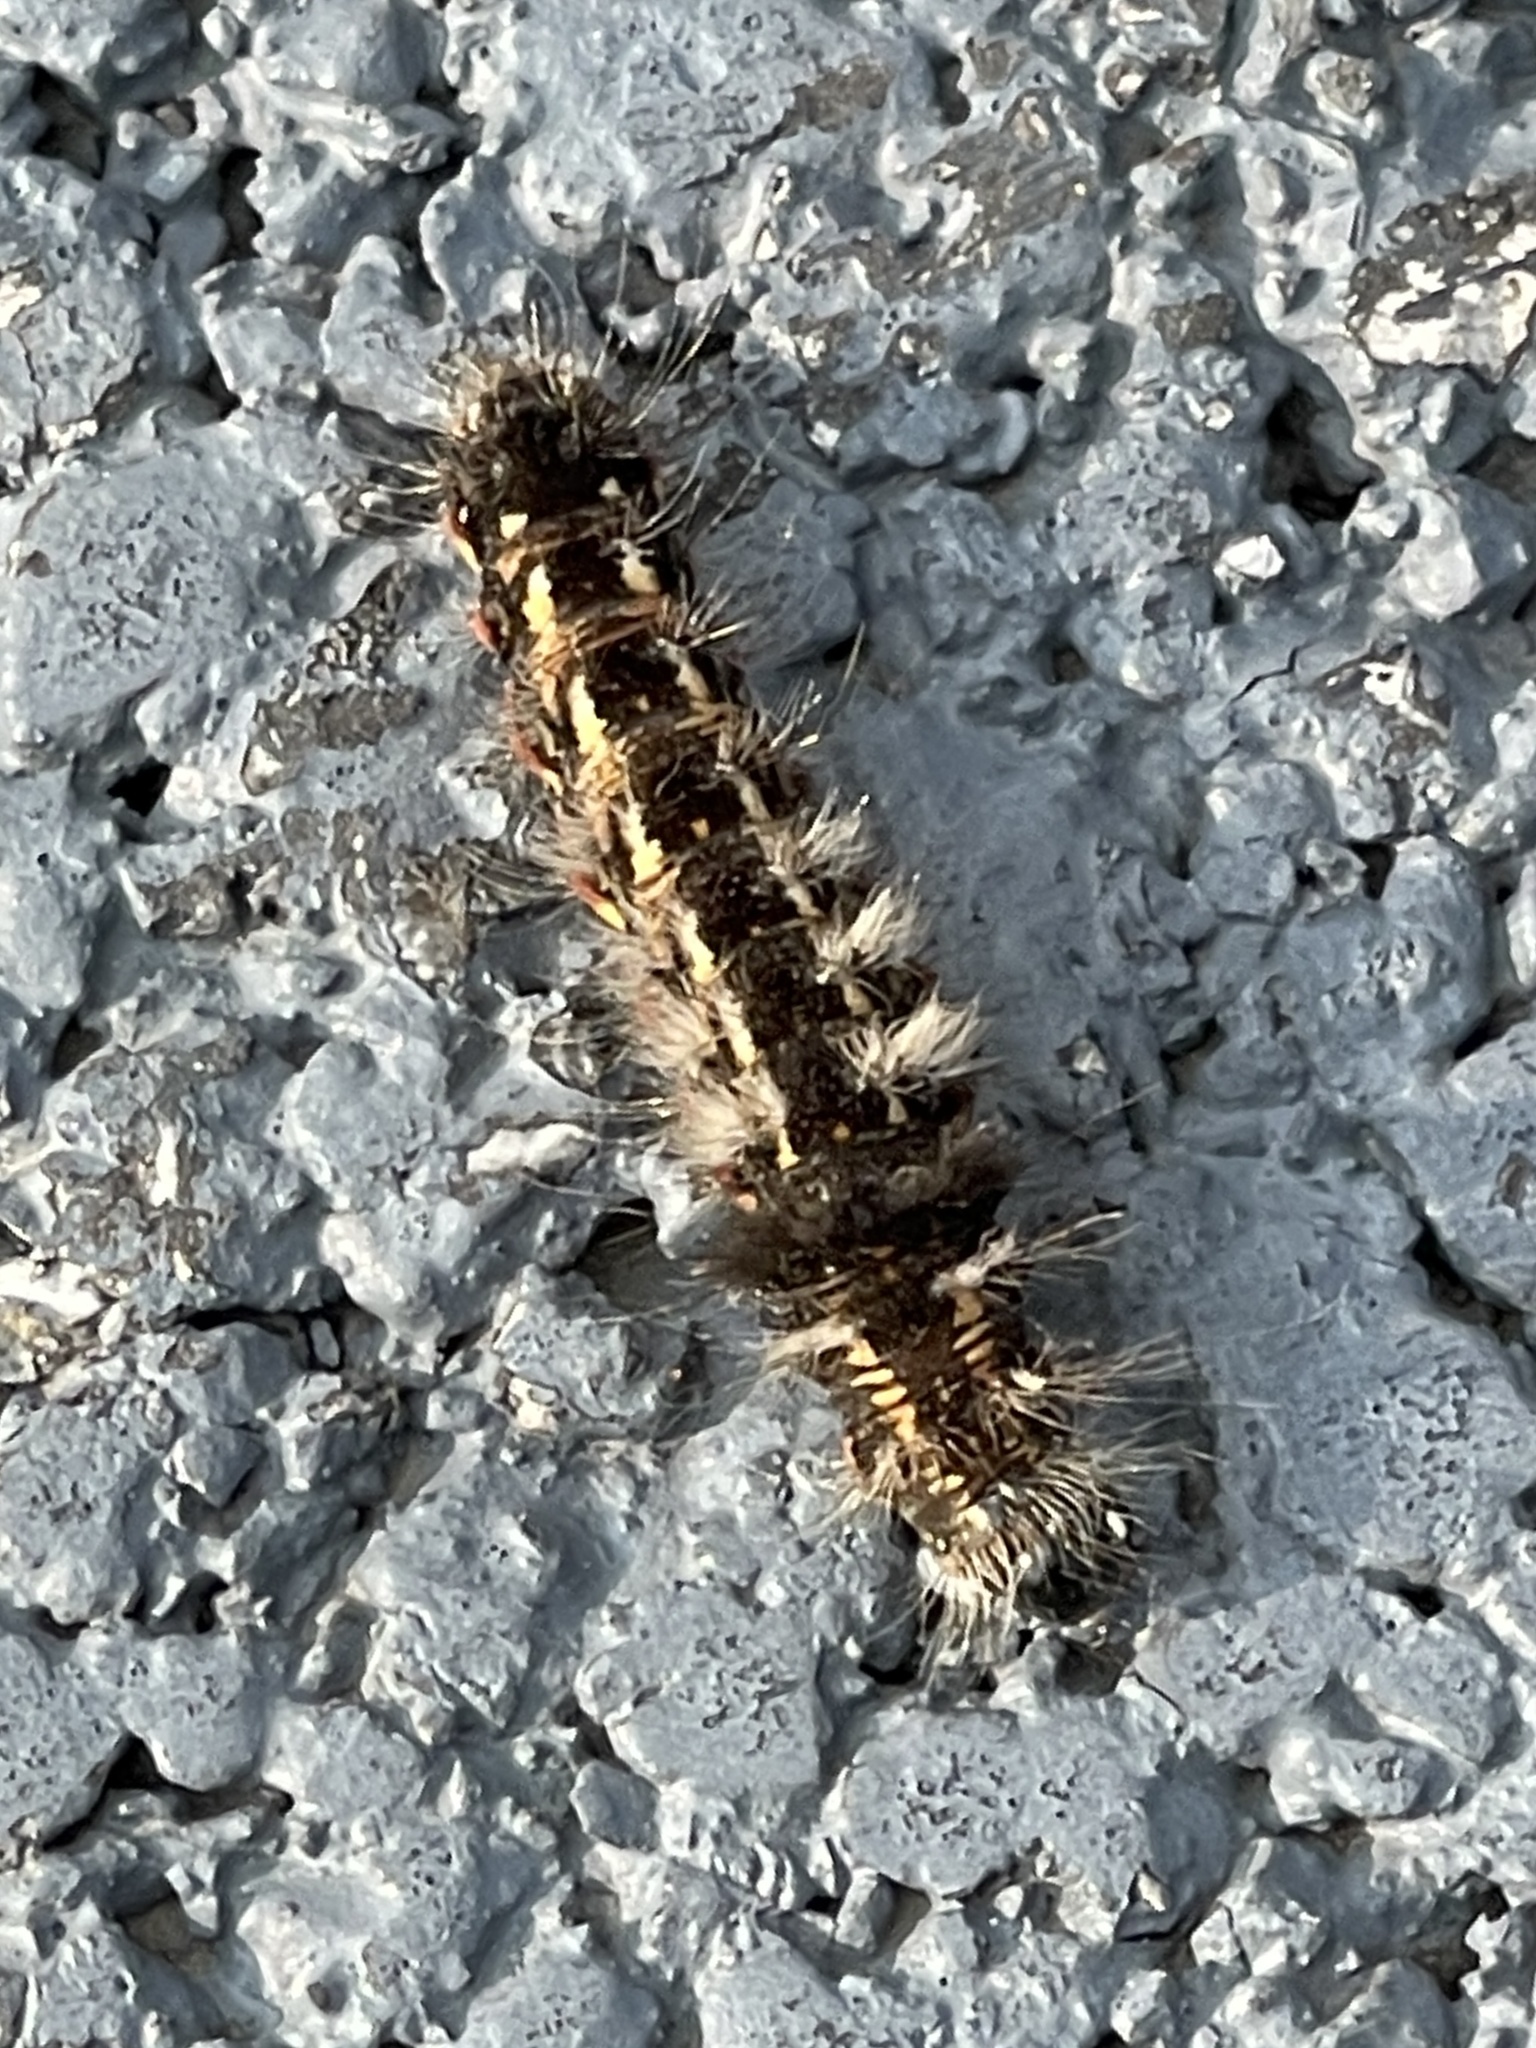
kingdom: Animalia
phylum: Arthropoda
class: Insecta
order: Lepidoptera
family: Noctuidae
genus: Acronicta
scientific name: Acronicta rumicis
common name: Knot grass
